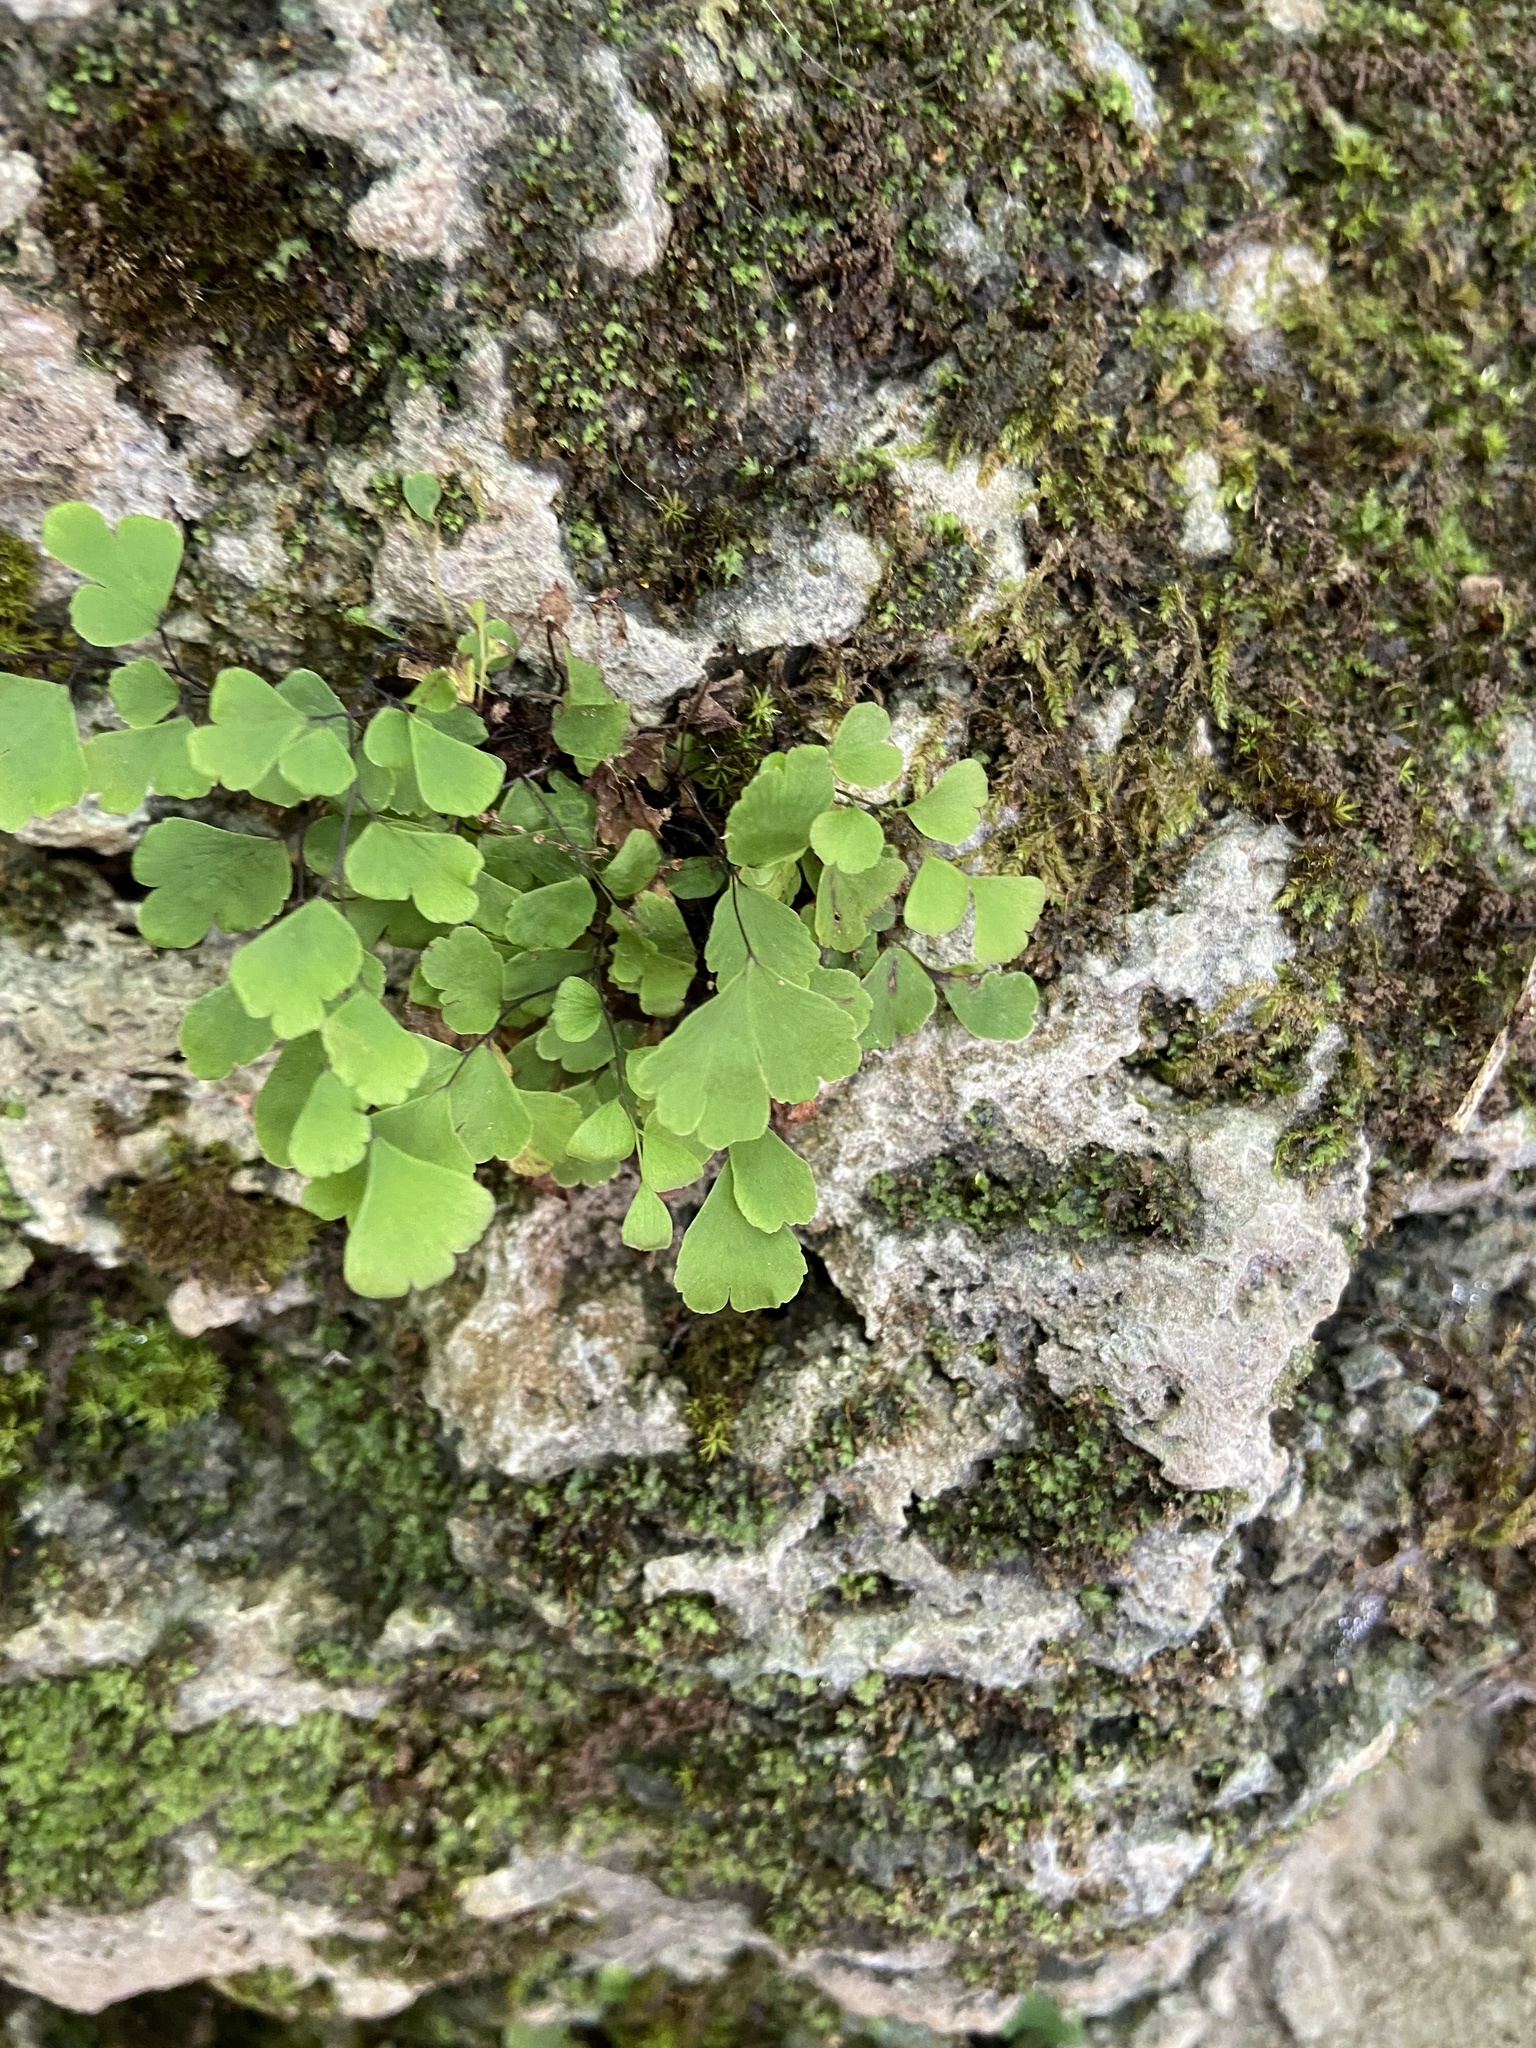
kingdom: Plantae
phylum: Tracheophyta
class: Polypodiopsida
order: Polypodiales
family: Pteridaceae
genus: Adiantum
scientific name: Adiantum capillus-veneris
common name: Maidenhair fern
